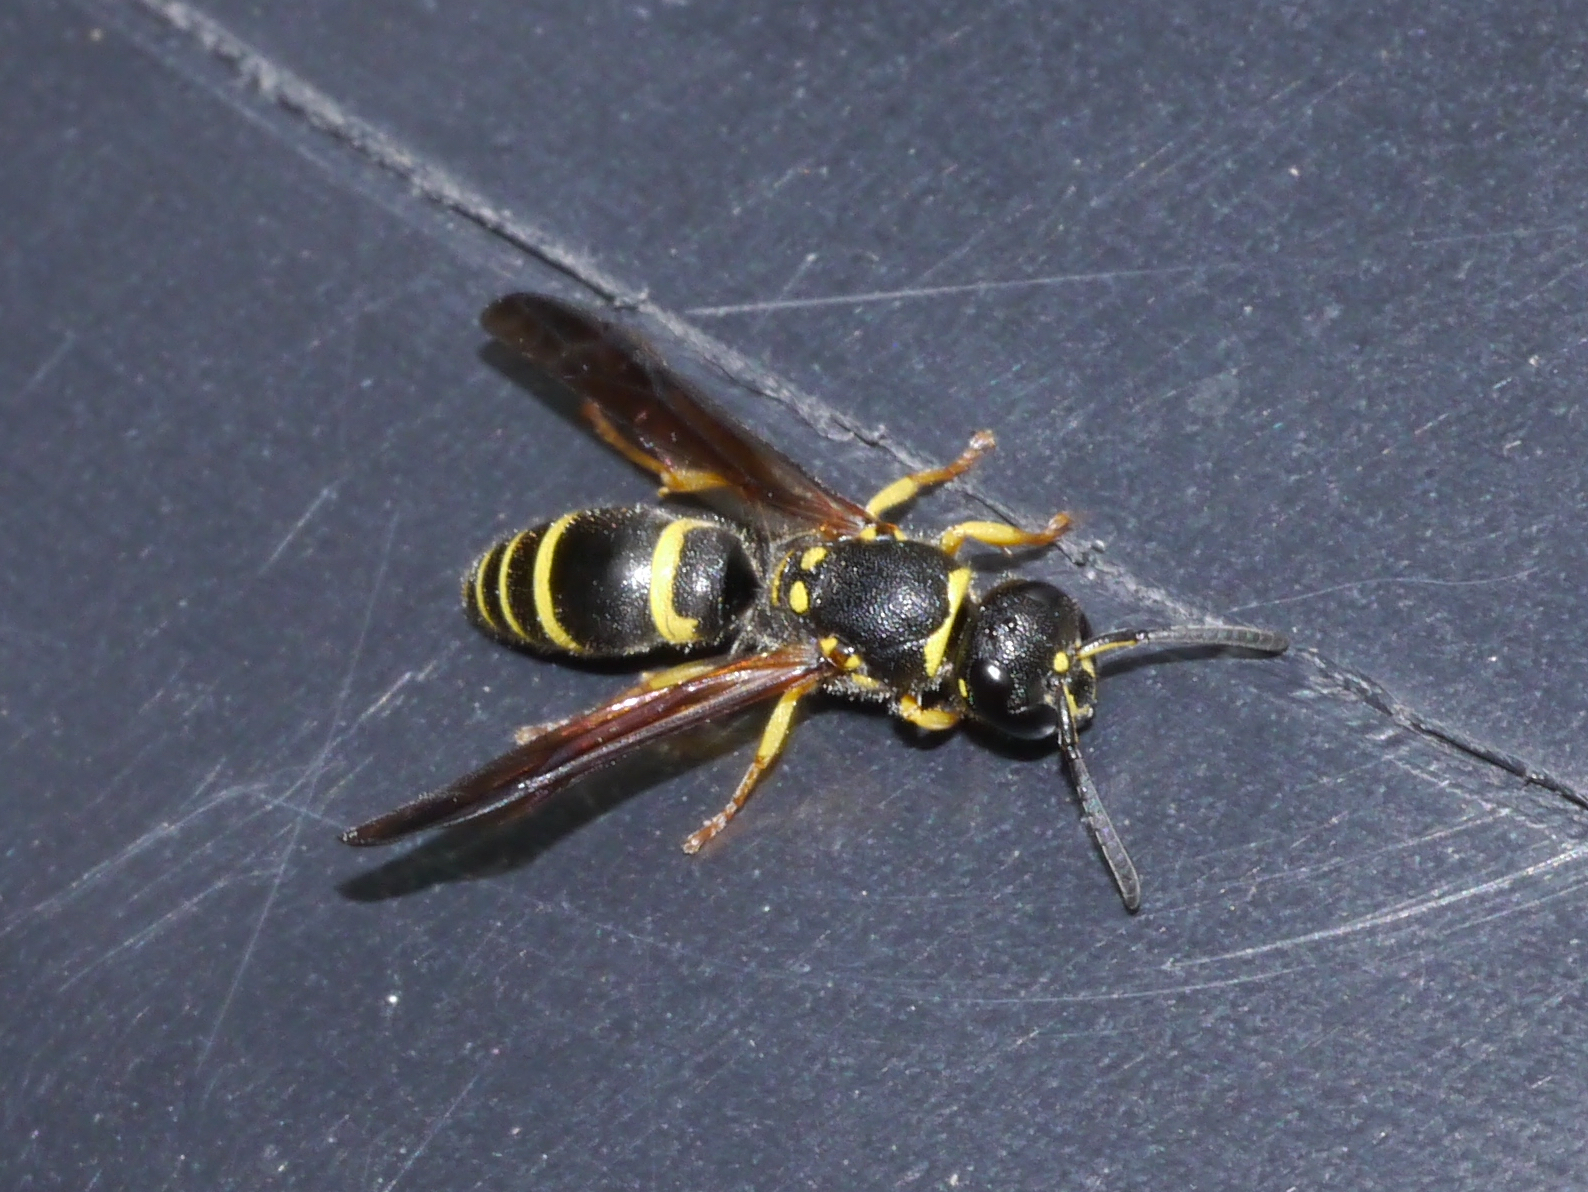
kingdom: Animalia
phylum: Arthropoda
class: Insecta
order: Hymenoptera
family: Vespidae
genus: Ancistrocerus
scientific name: Ancistrocerus adiabatus
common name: Bramble mason wasp
